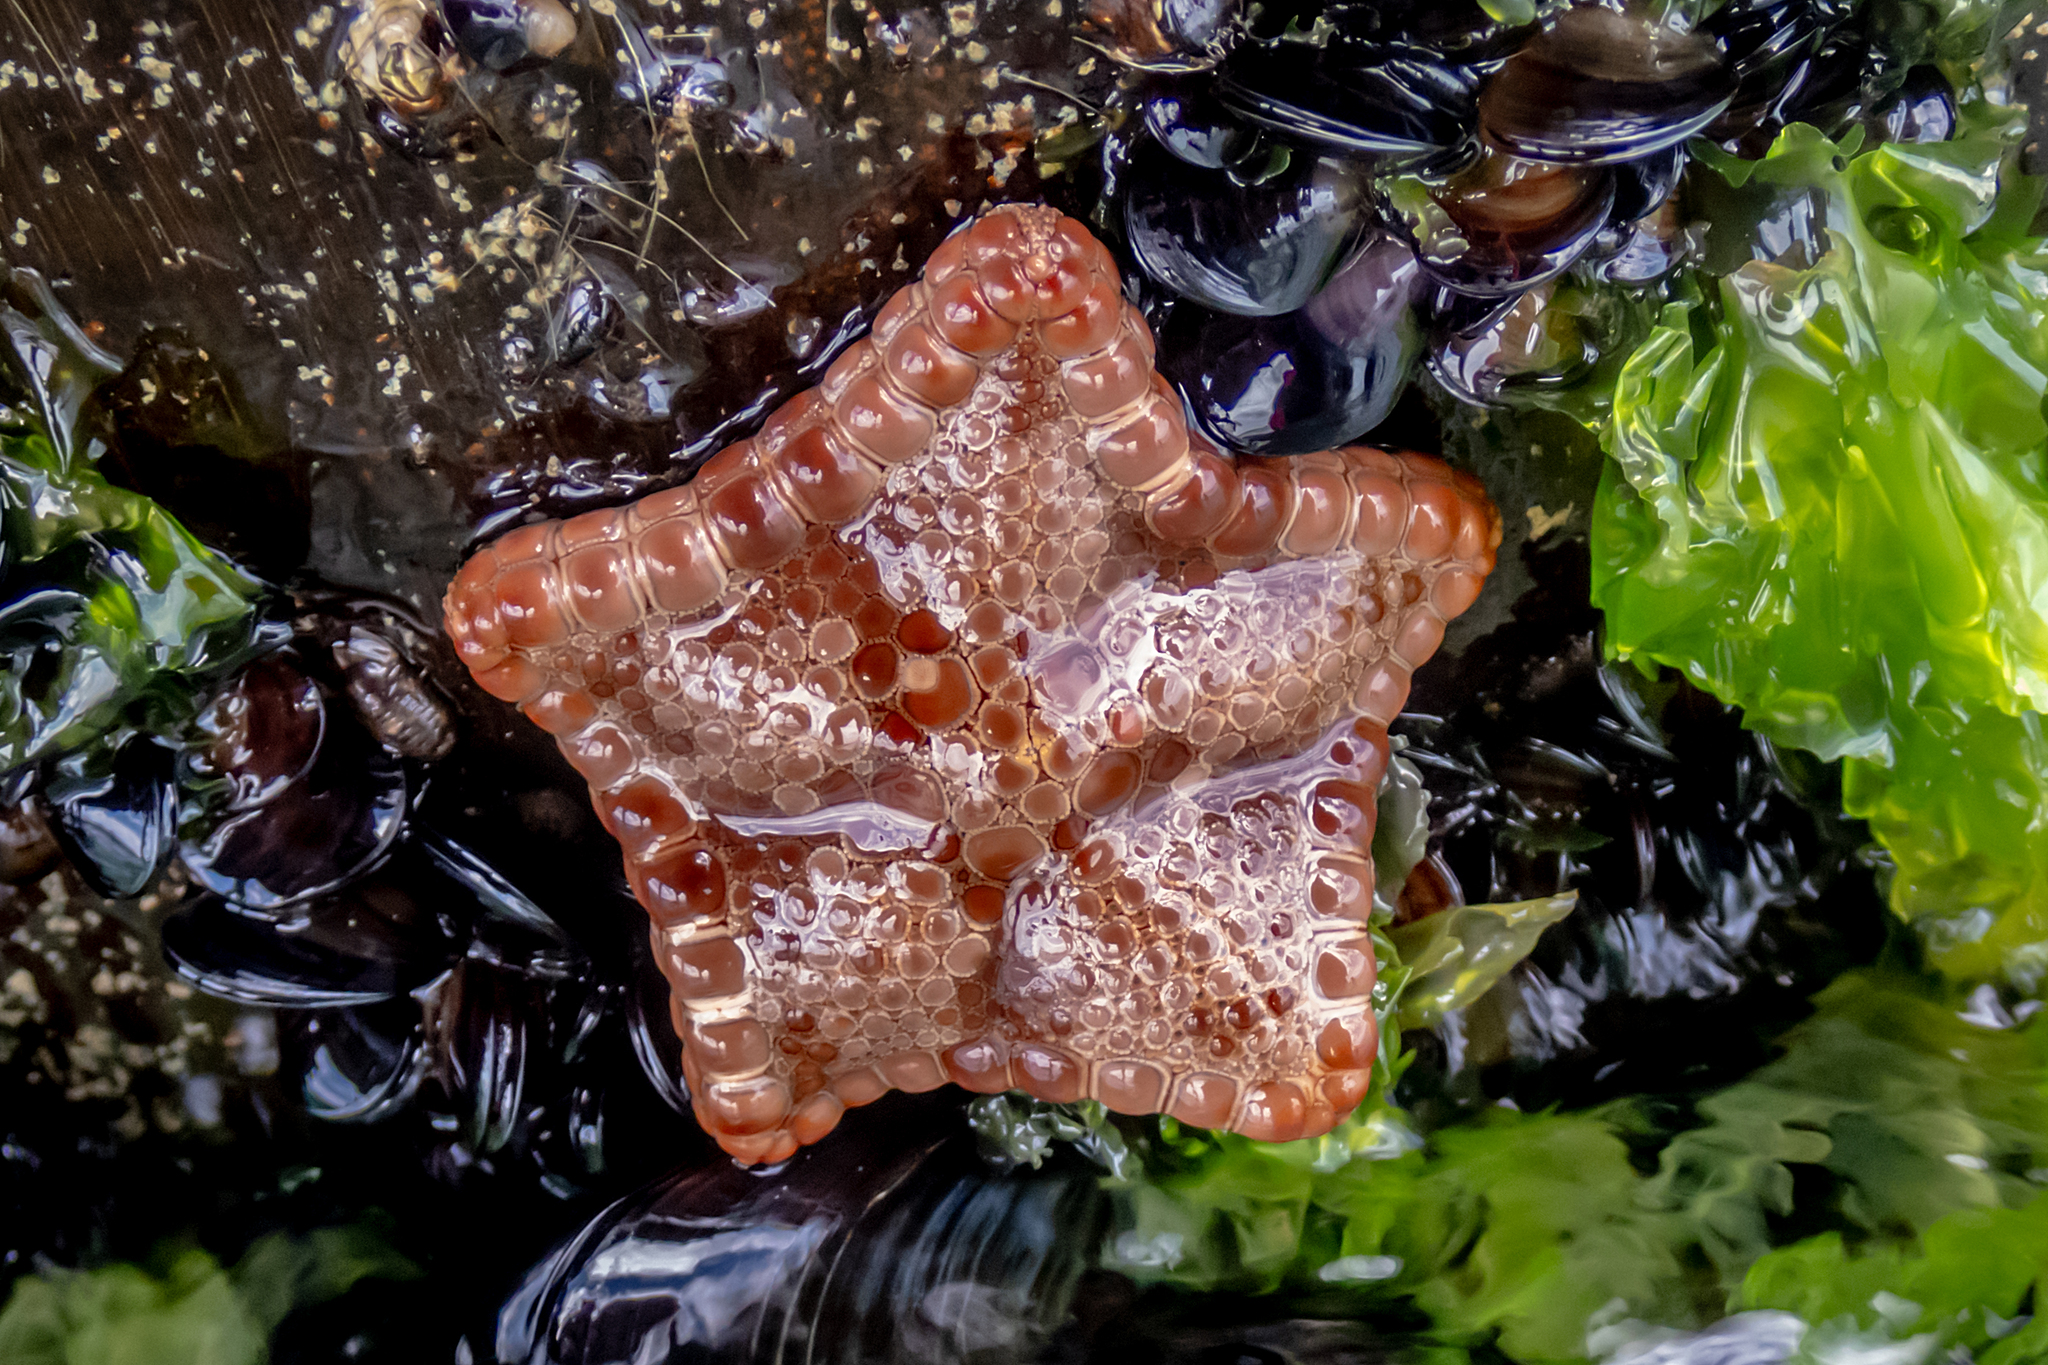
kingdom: Animalia
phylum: Echinodermata
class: Asteroidea
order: Valvatida
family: Goniasteridae
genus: Tosia
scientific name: Tosia australis
